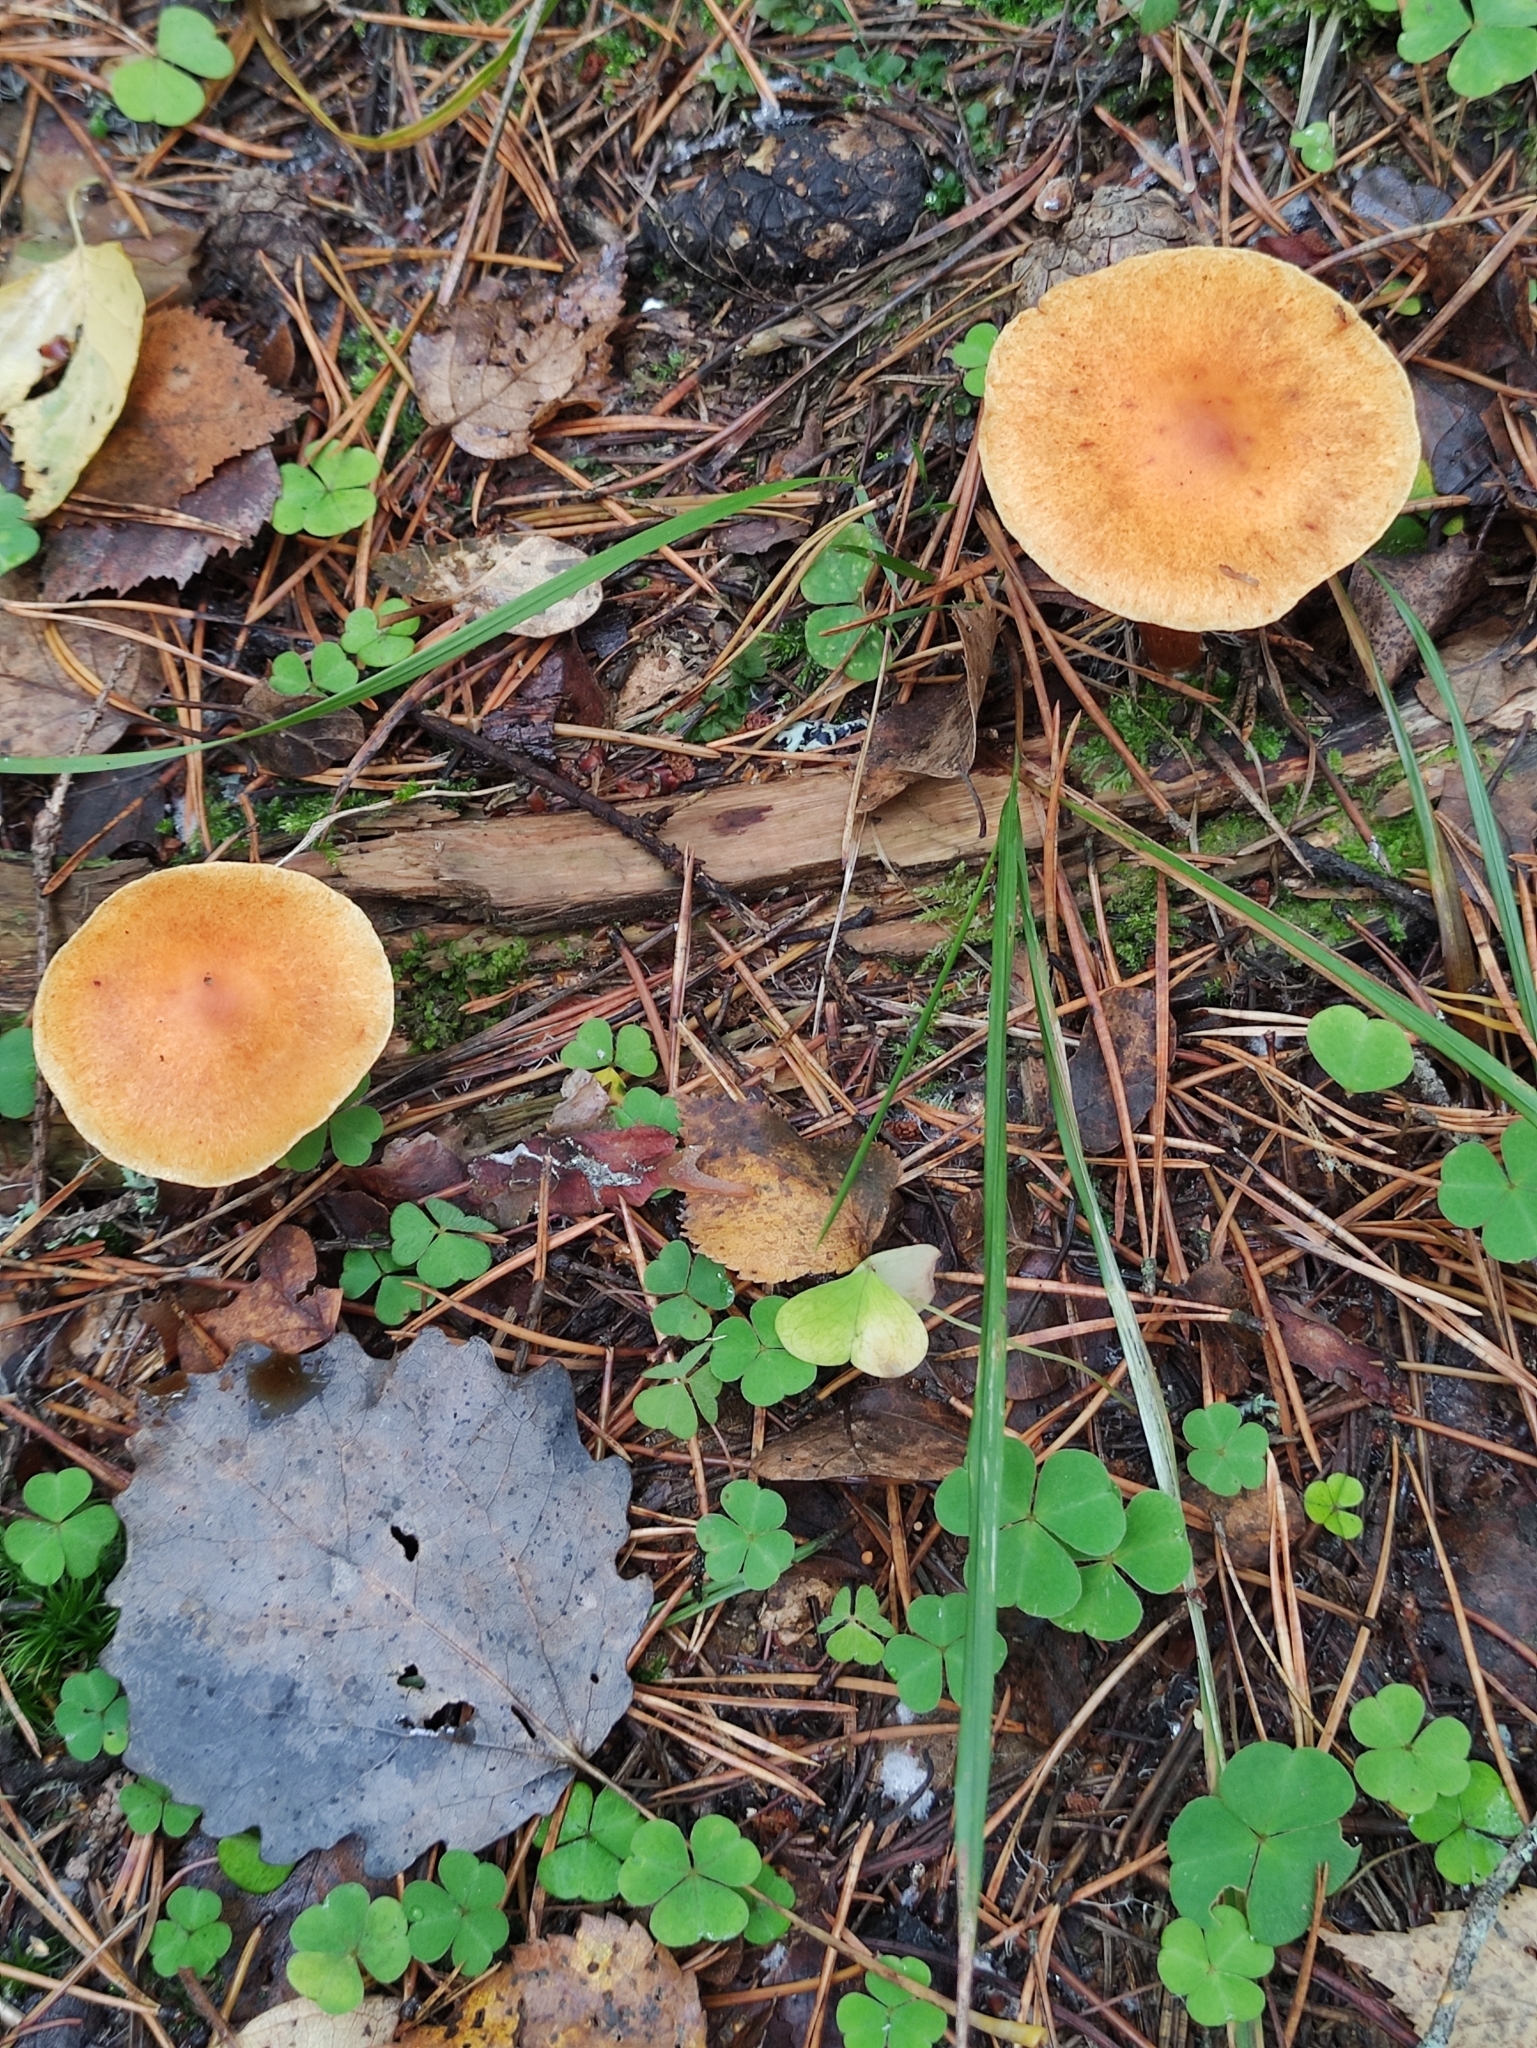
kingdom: Fungi
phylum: Basidiomycota
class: Agaricomycetes
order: Agaricales
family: Hymenogastraceae
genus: Gymnopilus
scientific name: Gymnopilus penetrans
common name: Common rustgill
